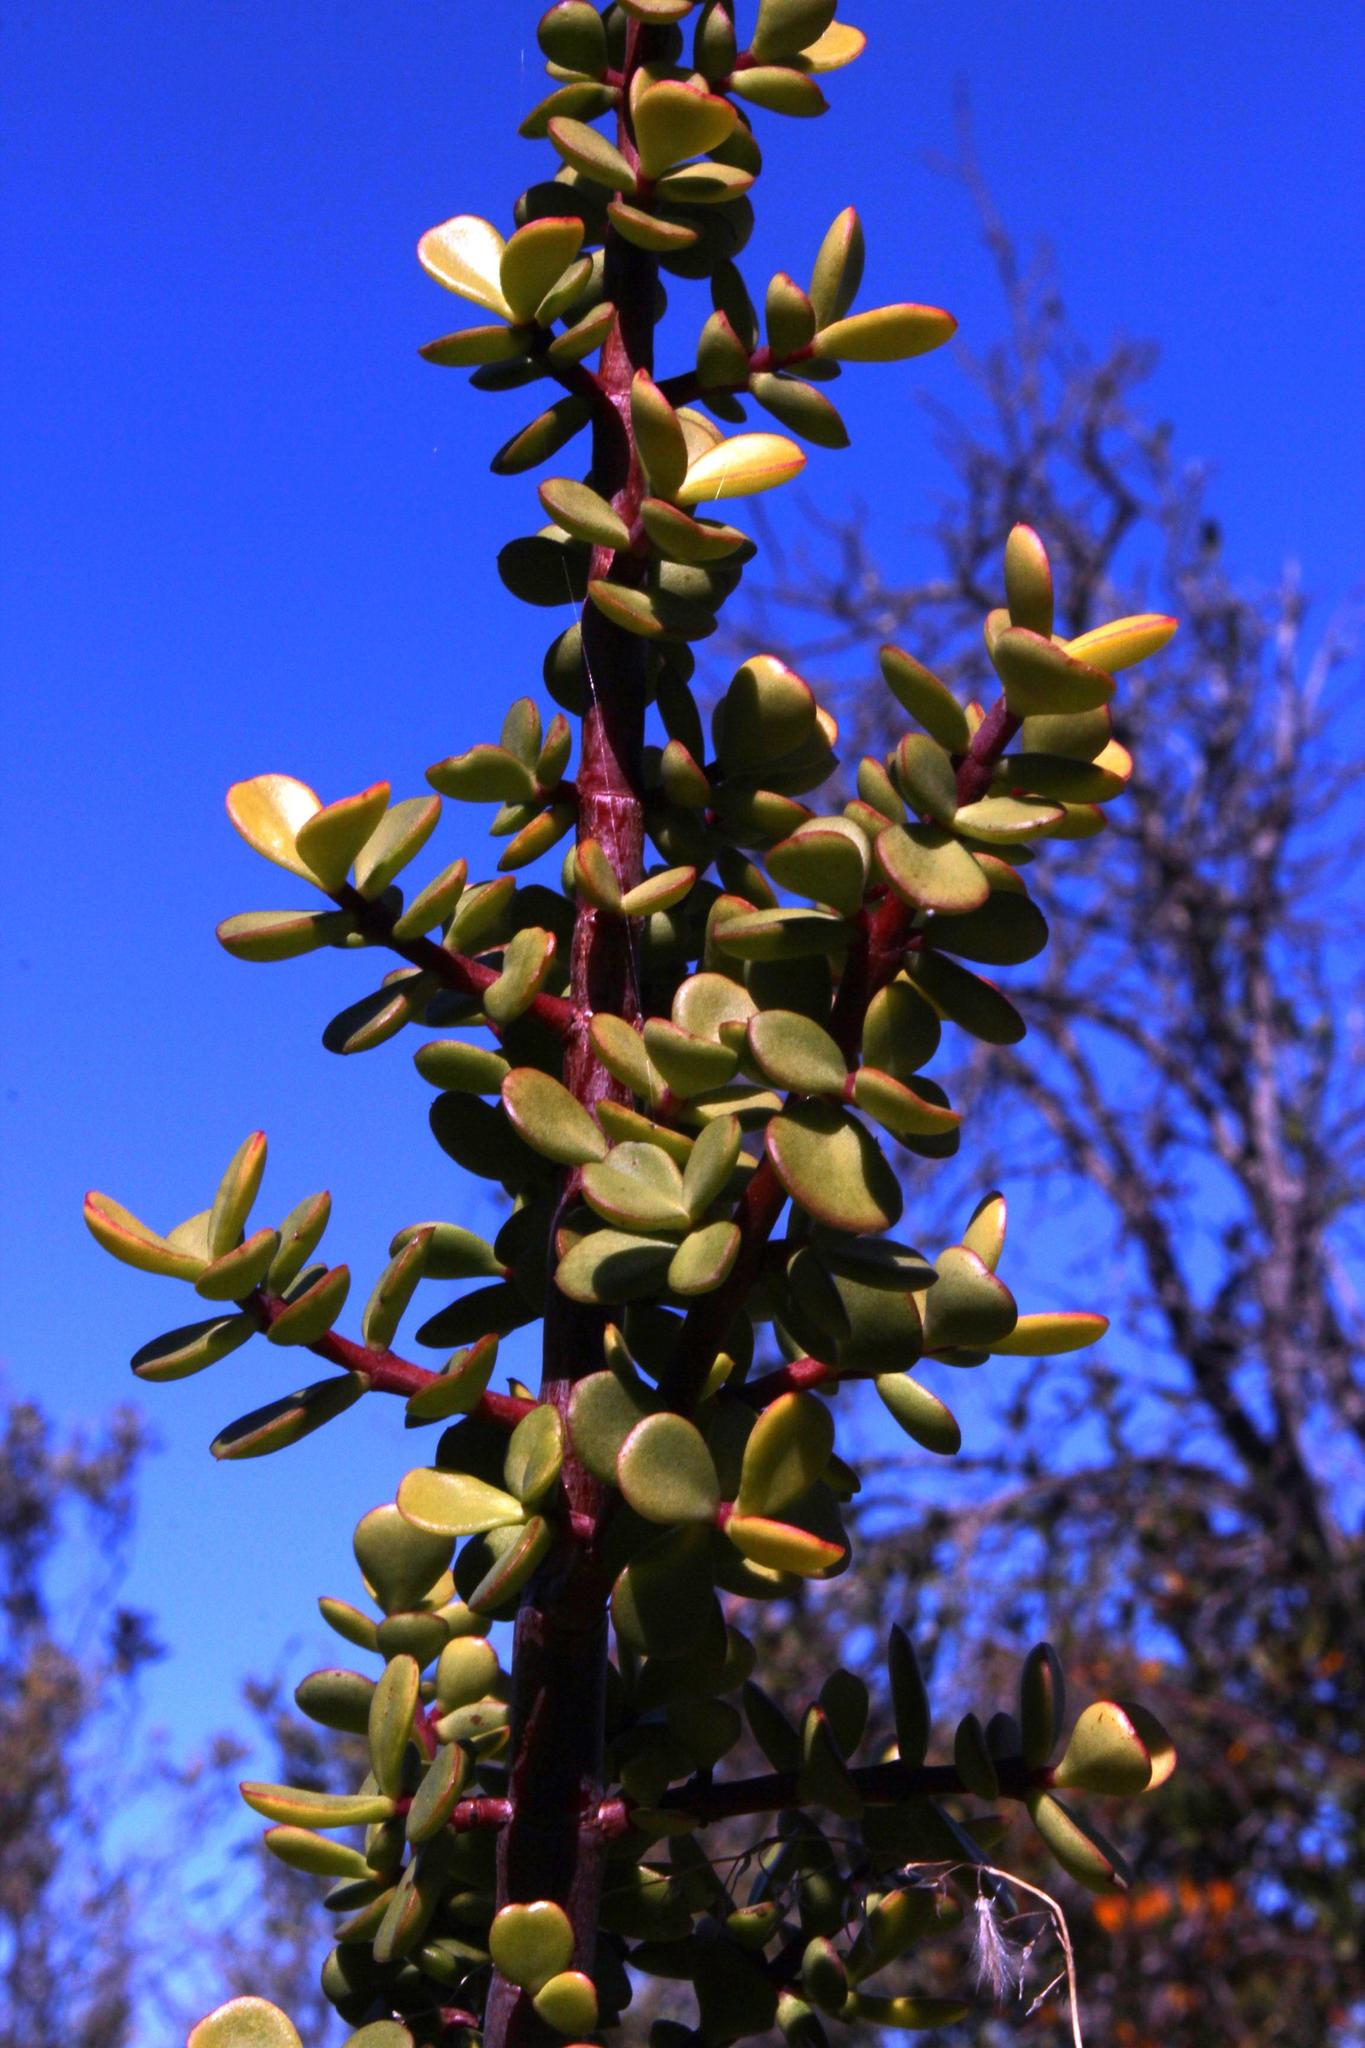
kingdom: Plantae
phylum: Tracheophyta
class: Magnoliopsida
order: Caryophyllales
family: Didiereaceae
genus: Portulacaria
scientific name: Portulacaria afra
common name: Elephant-bush
